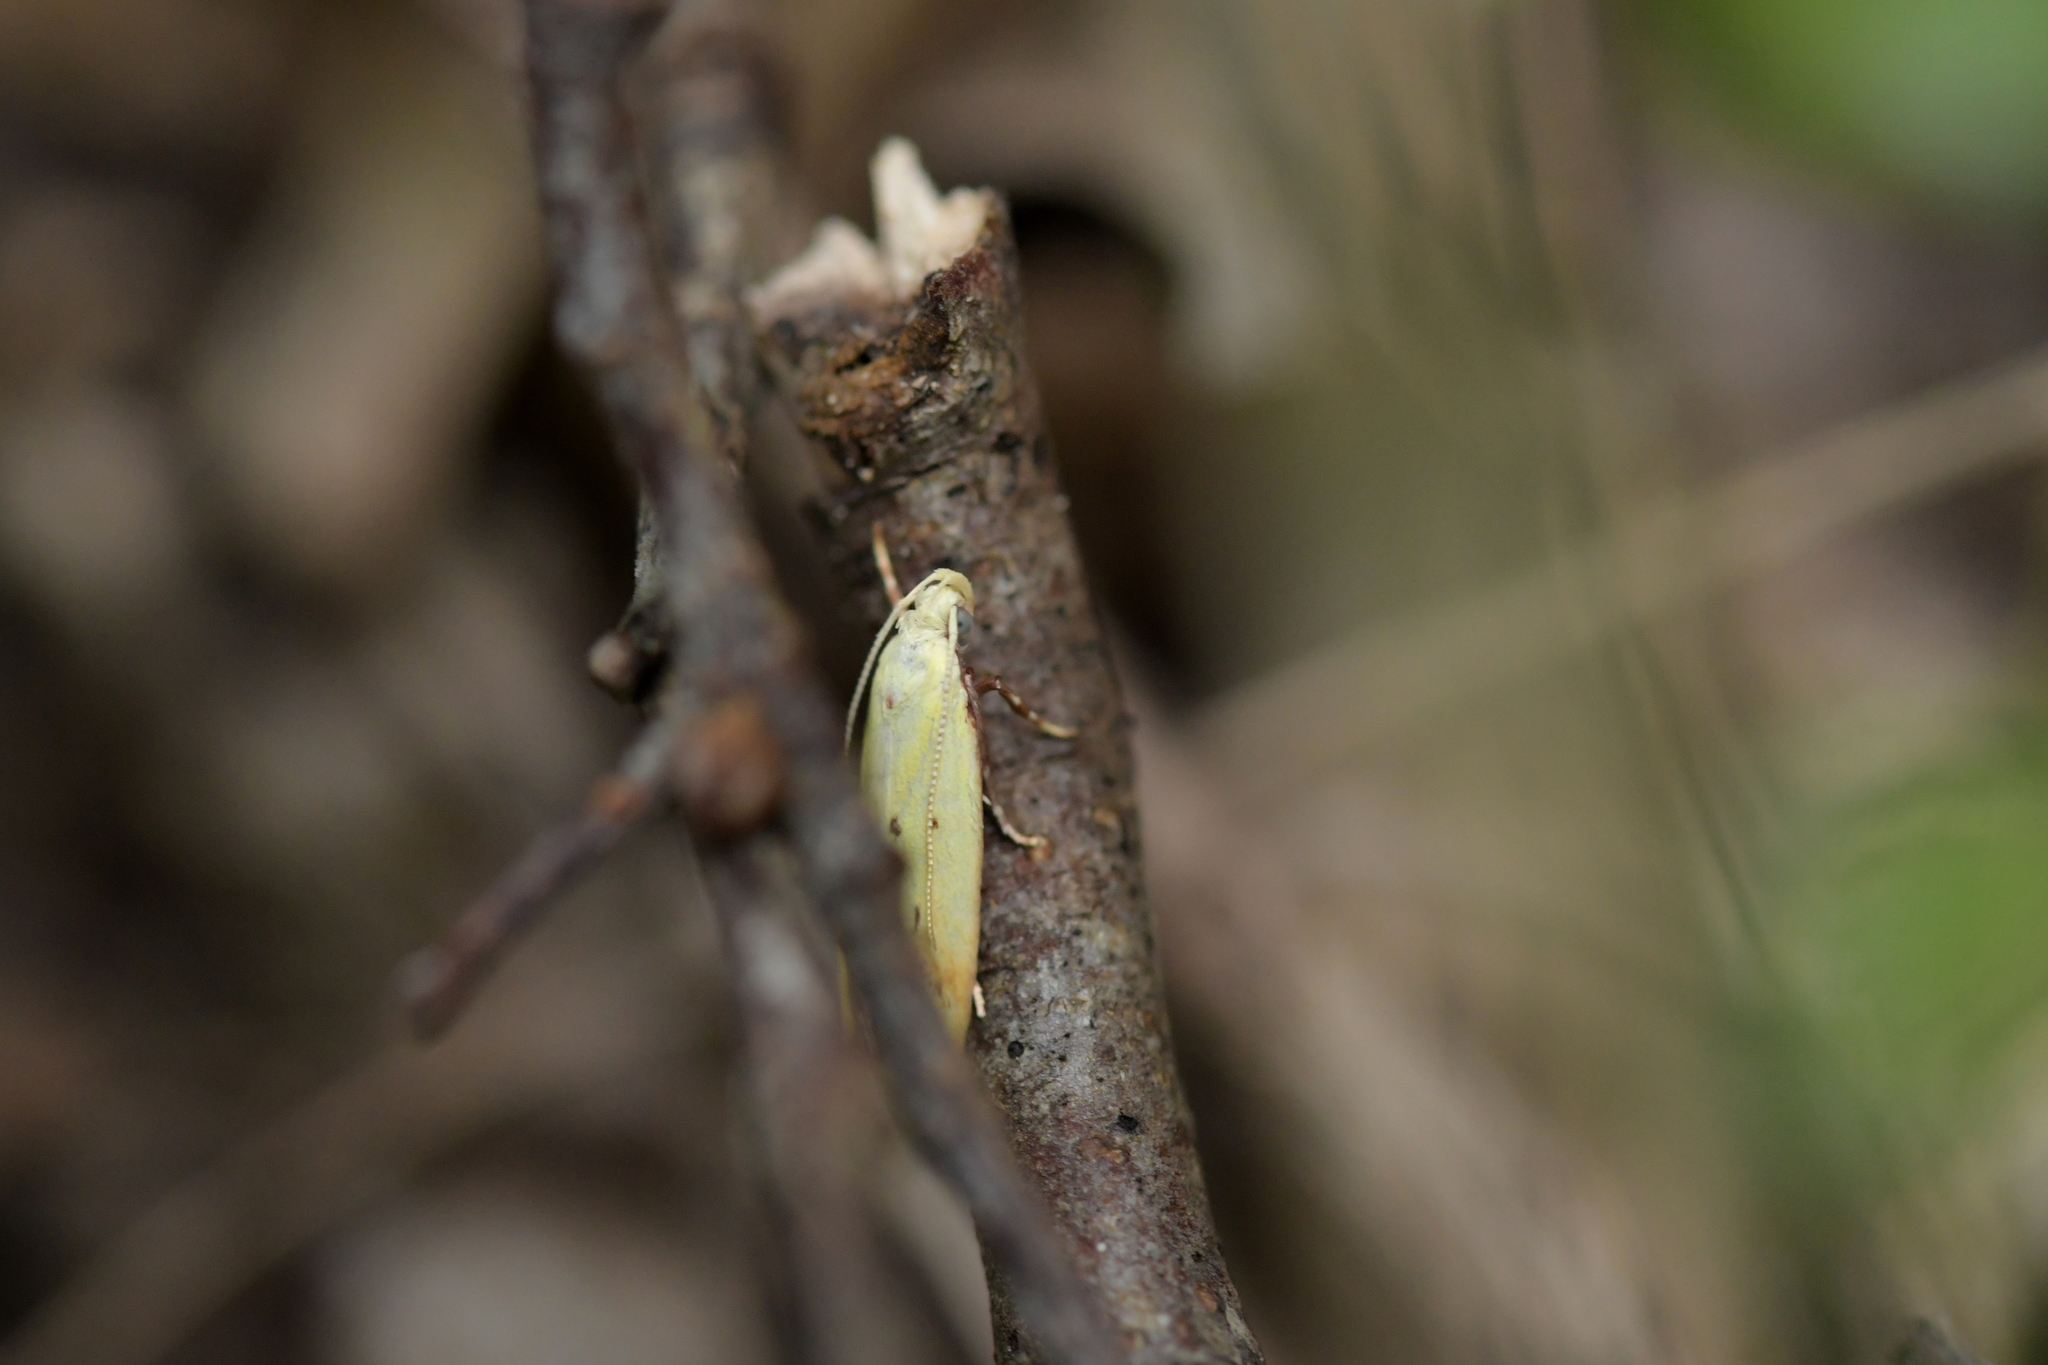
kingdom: Animalia
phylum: Arthropoda
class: Insecta
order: Lepidoptera
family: Oecophoridae
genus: Gymnobathra
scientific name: Gymnobathra flavidella
